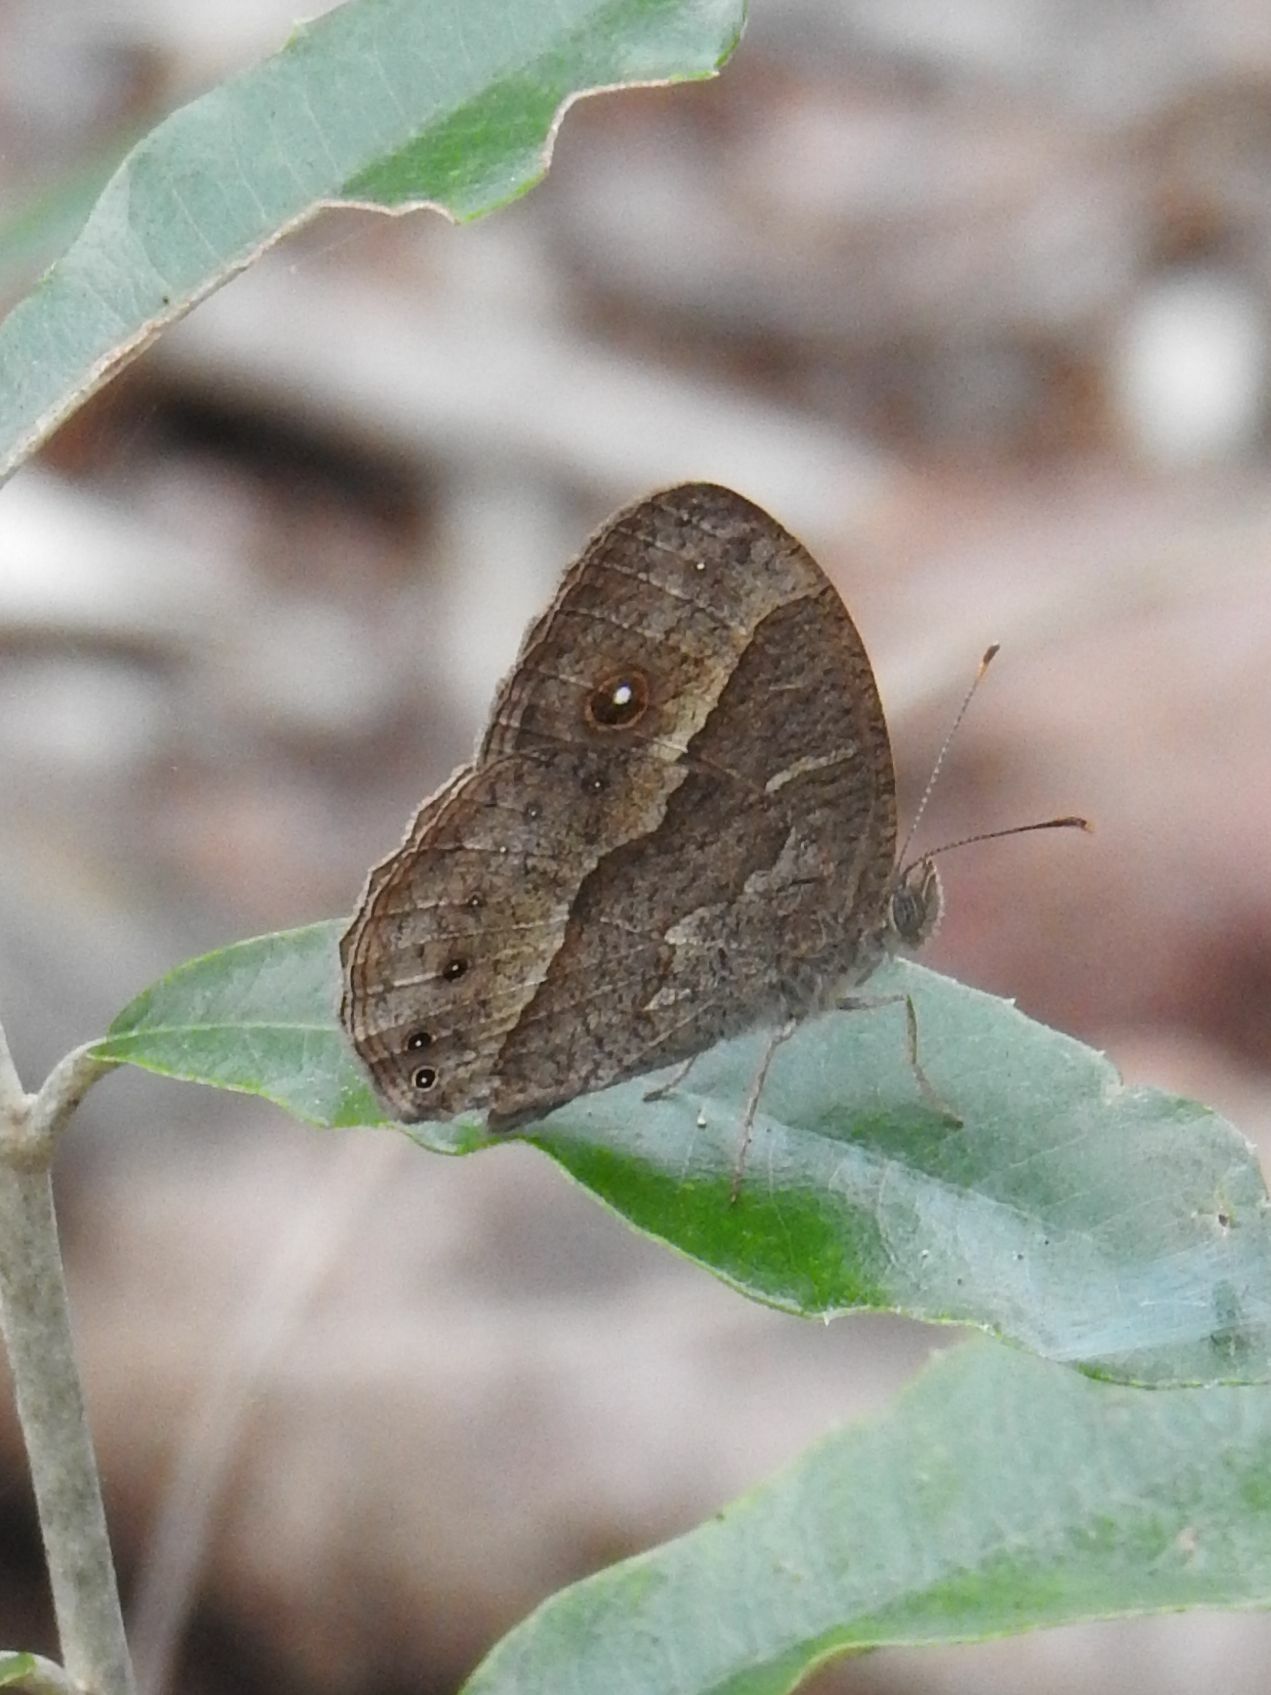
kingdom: Animalia
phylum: Arthropoda
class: Insecta
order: Lepidoptera
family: Nymphalidae
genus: Mycalesis
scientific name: Mycalesis anynana
